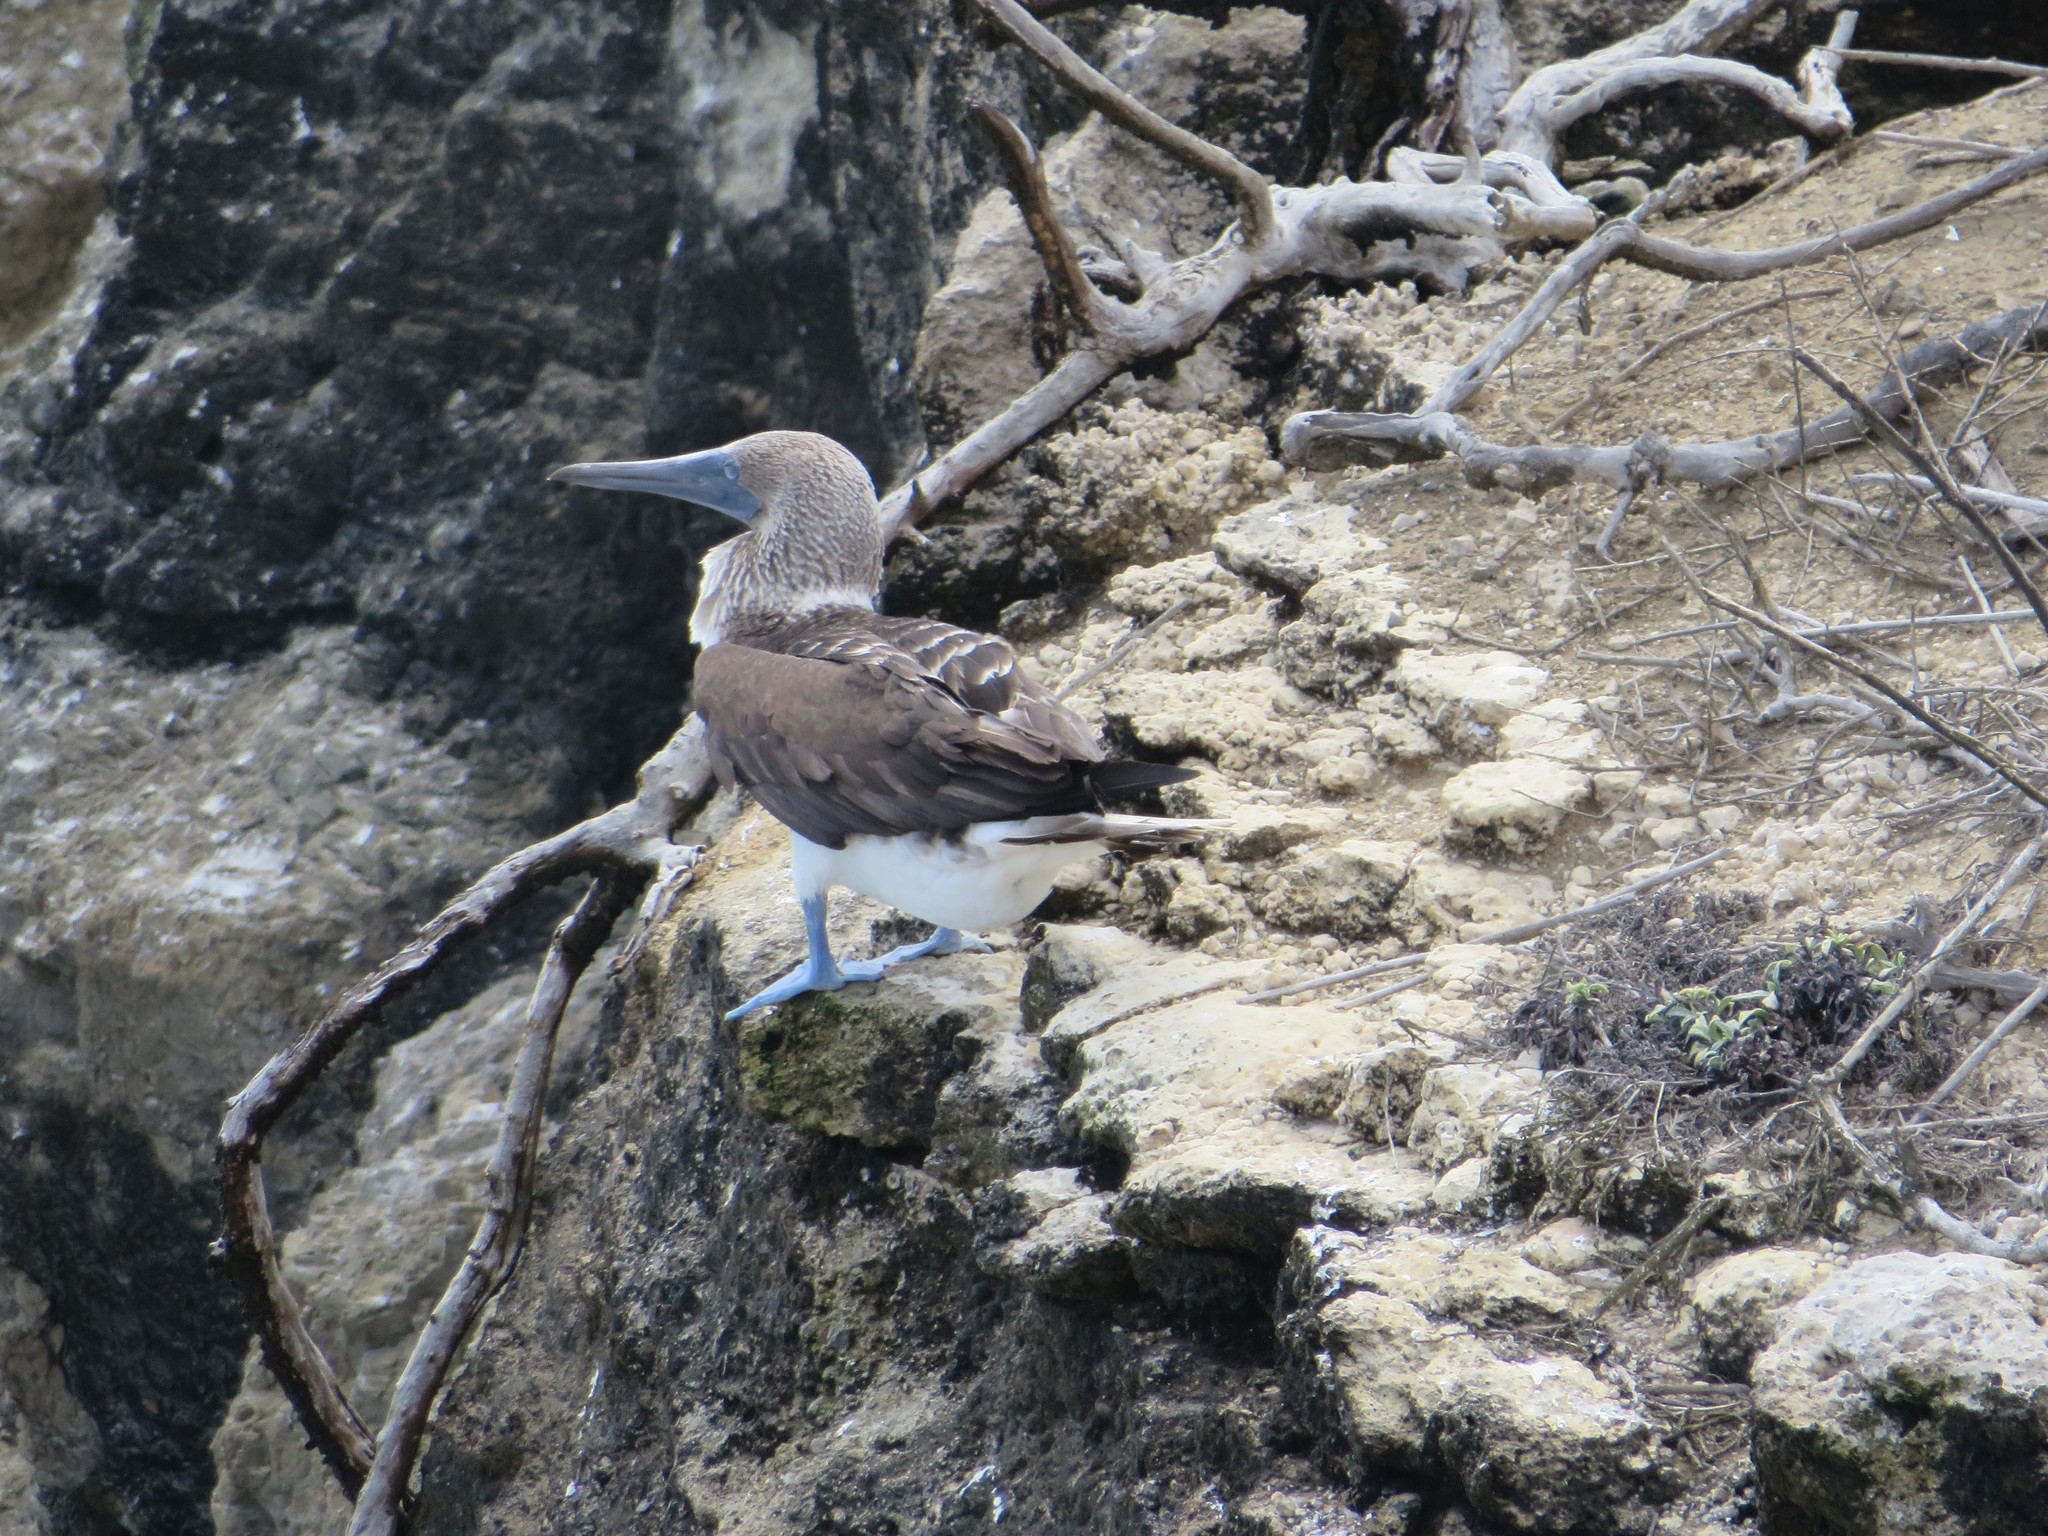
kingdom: Animalia
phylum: Chordata
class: Aves
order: Suliformes
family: Sulidae
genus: Sula
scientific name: Sula nebouxii
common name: Blue-footed booby
